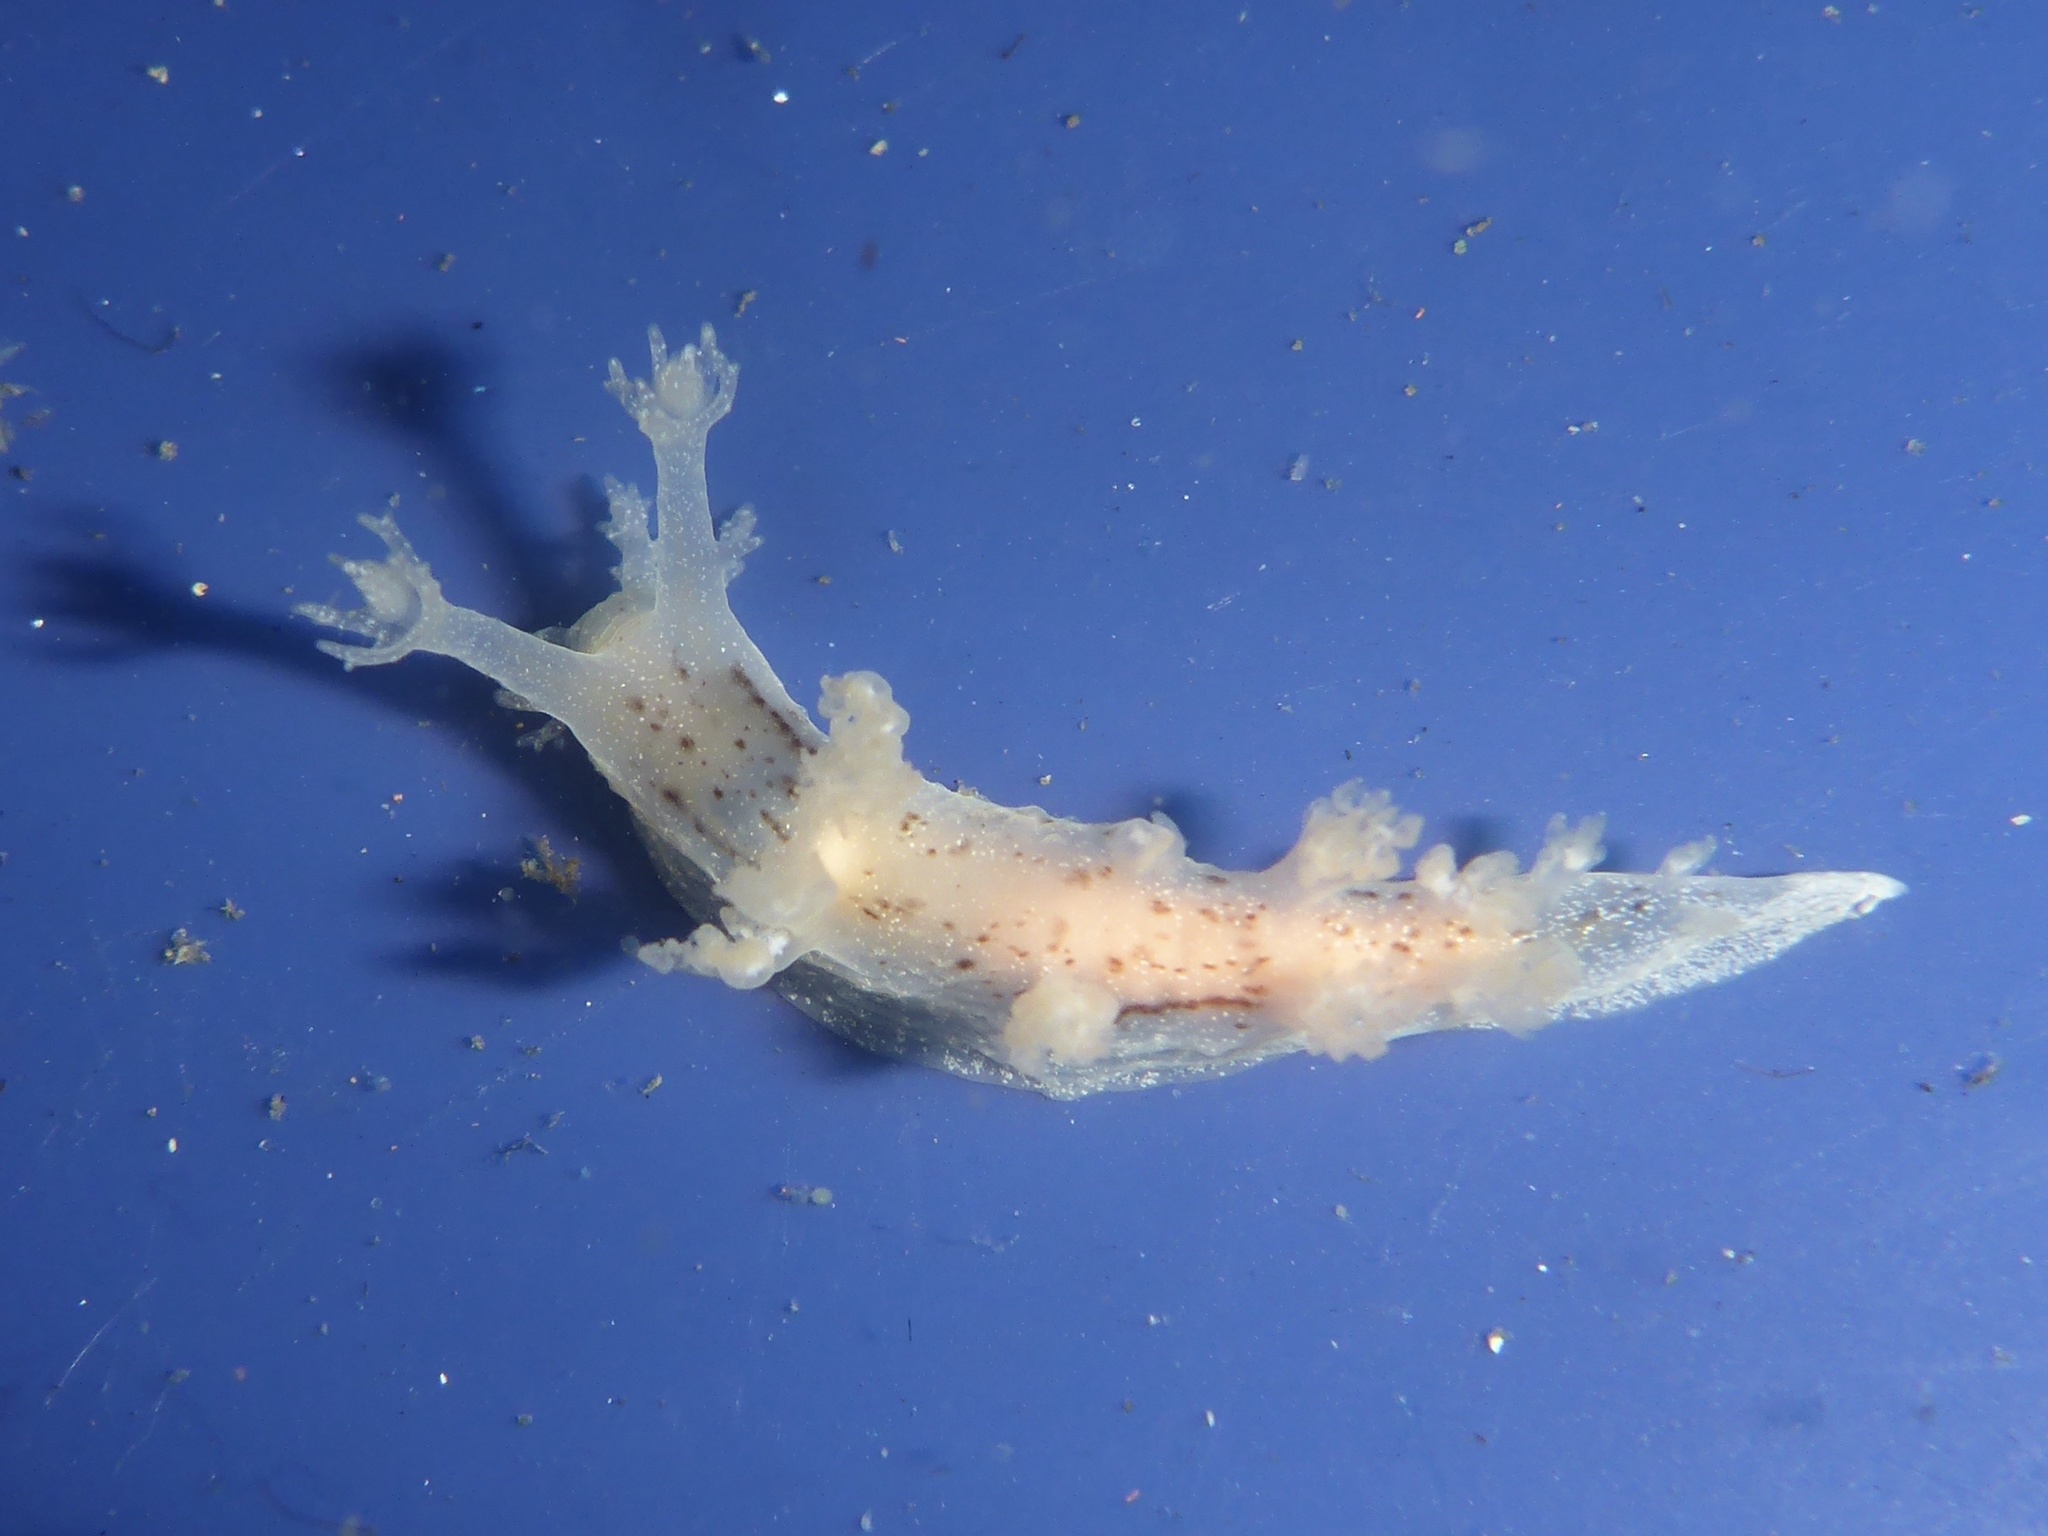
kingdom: Animalia
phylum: Mollusca
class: Gastropoda
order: Nudibranchia
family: Dendronotidae
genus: Dendronotus
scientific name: Dendronotus subramosus
